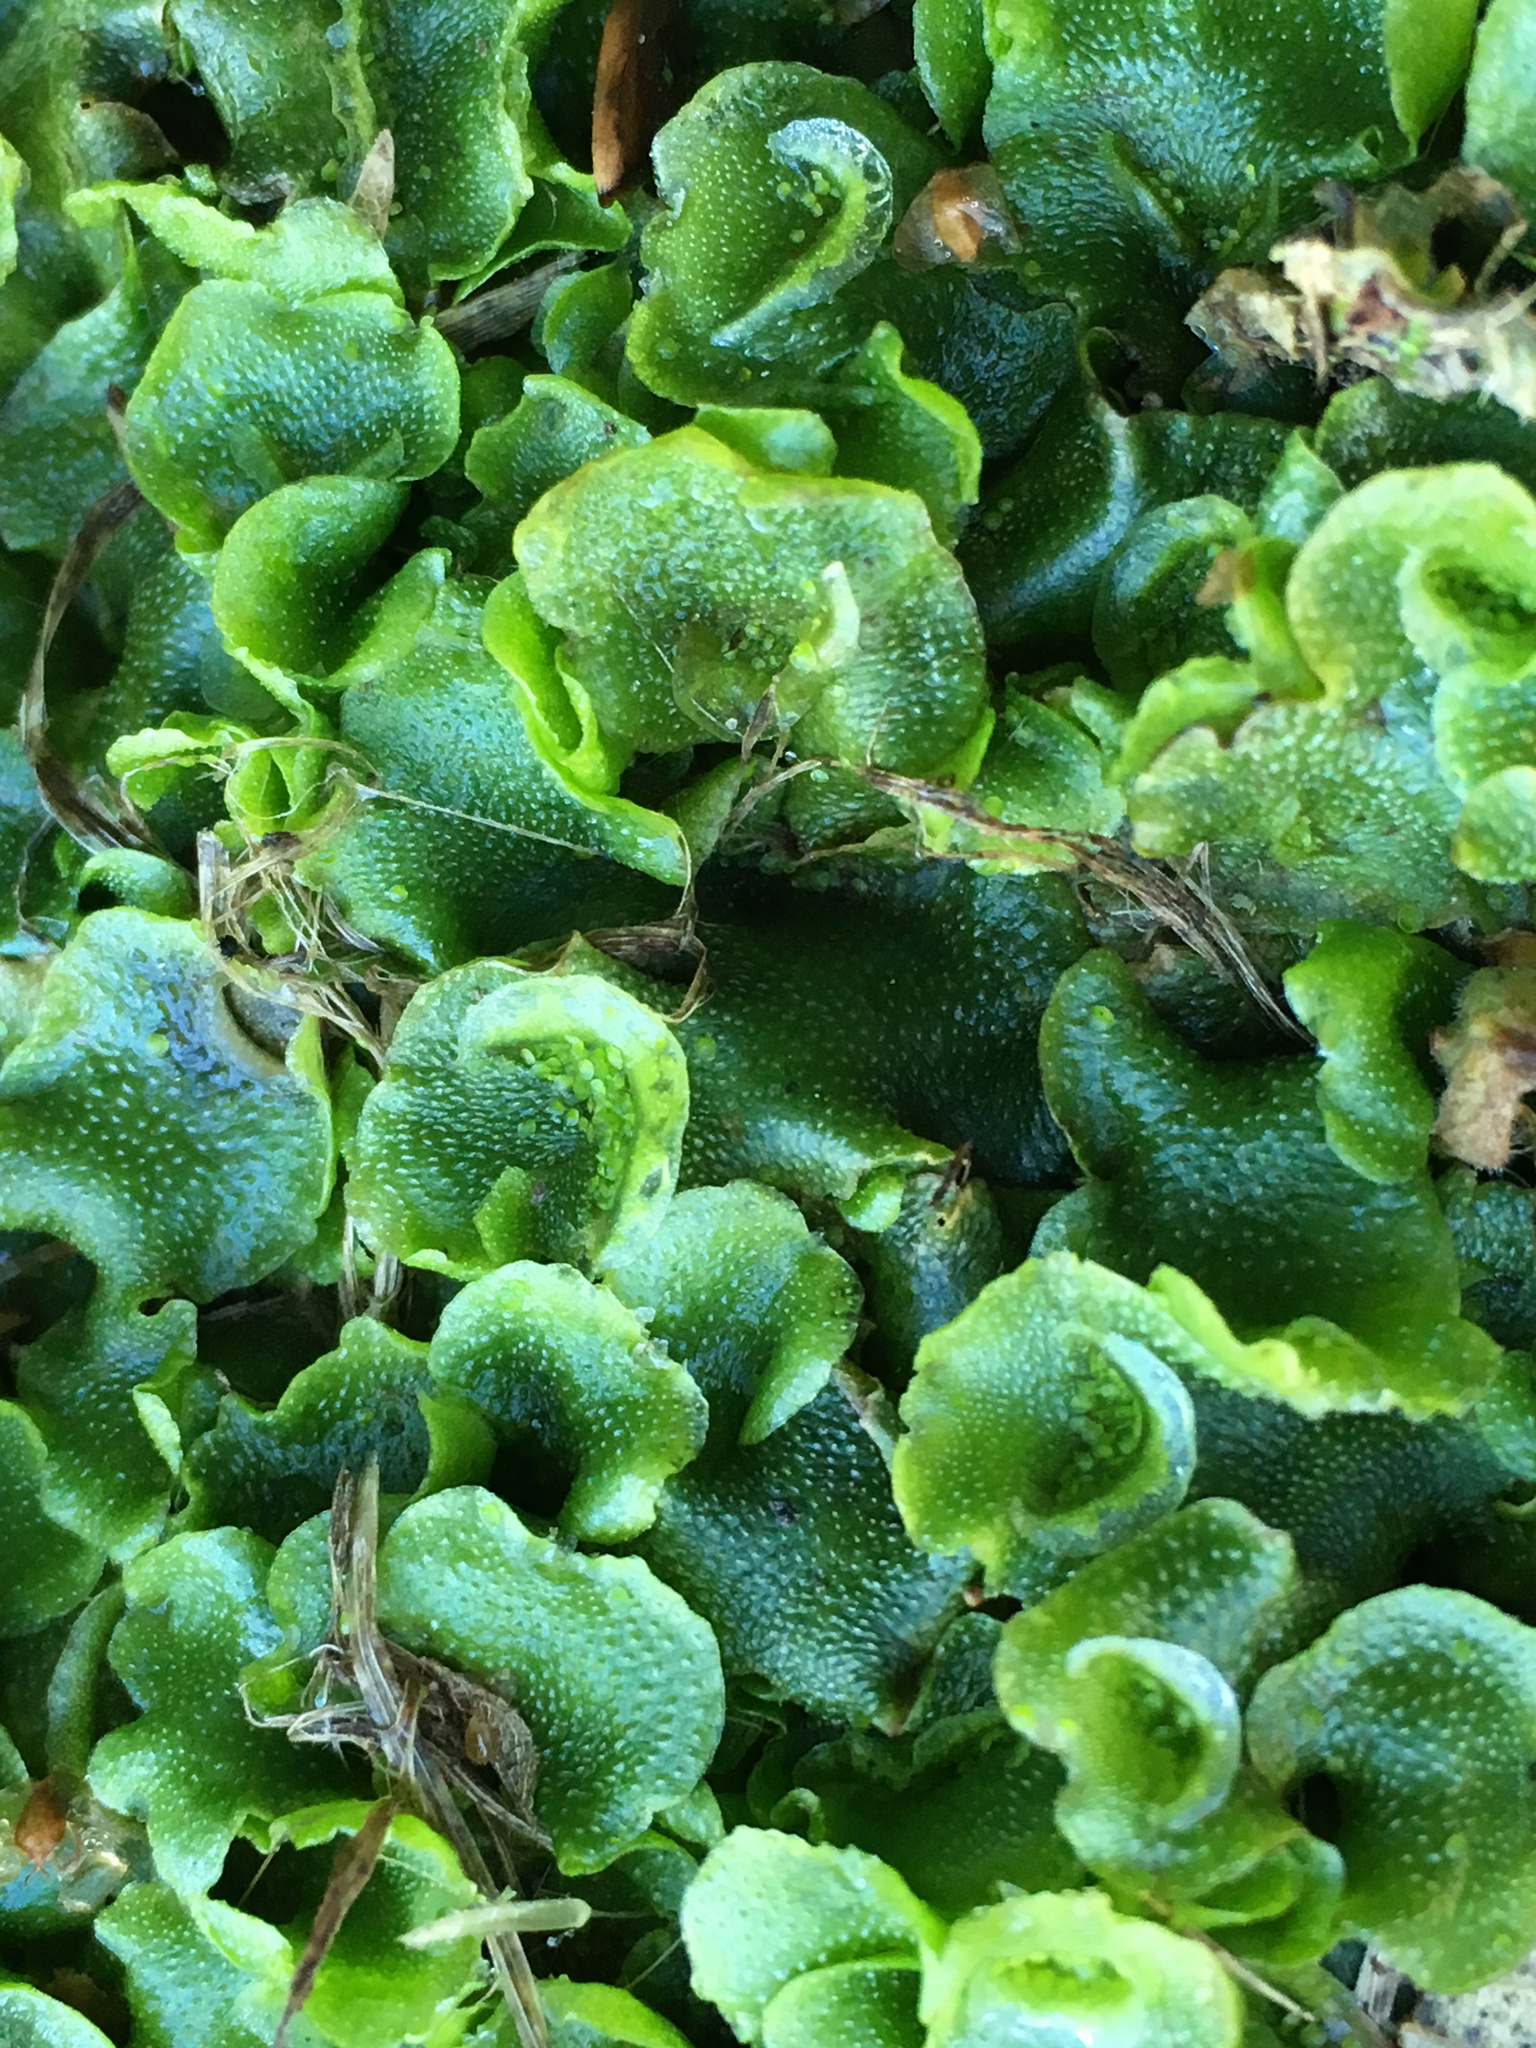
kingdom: Plantae
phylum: Marchantiophyta
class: Marchantiopsida
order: Lunulariales
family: Lunulariaceae
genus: Lunularia
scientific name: Lunularia cruciata
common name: Crescent-cup liverwort
